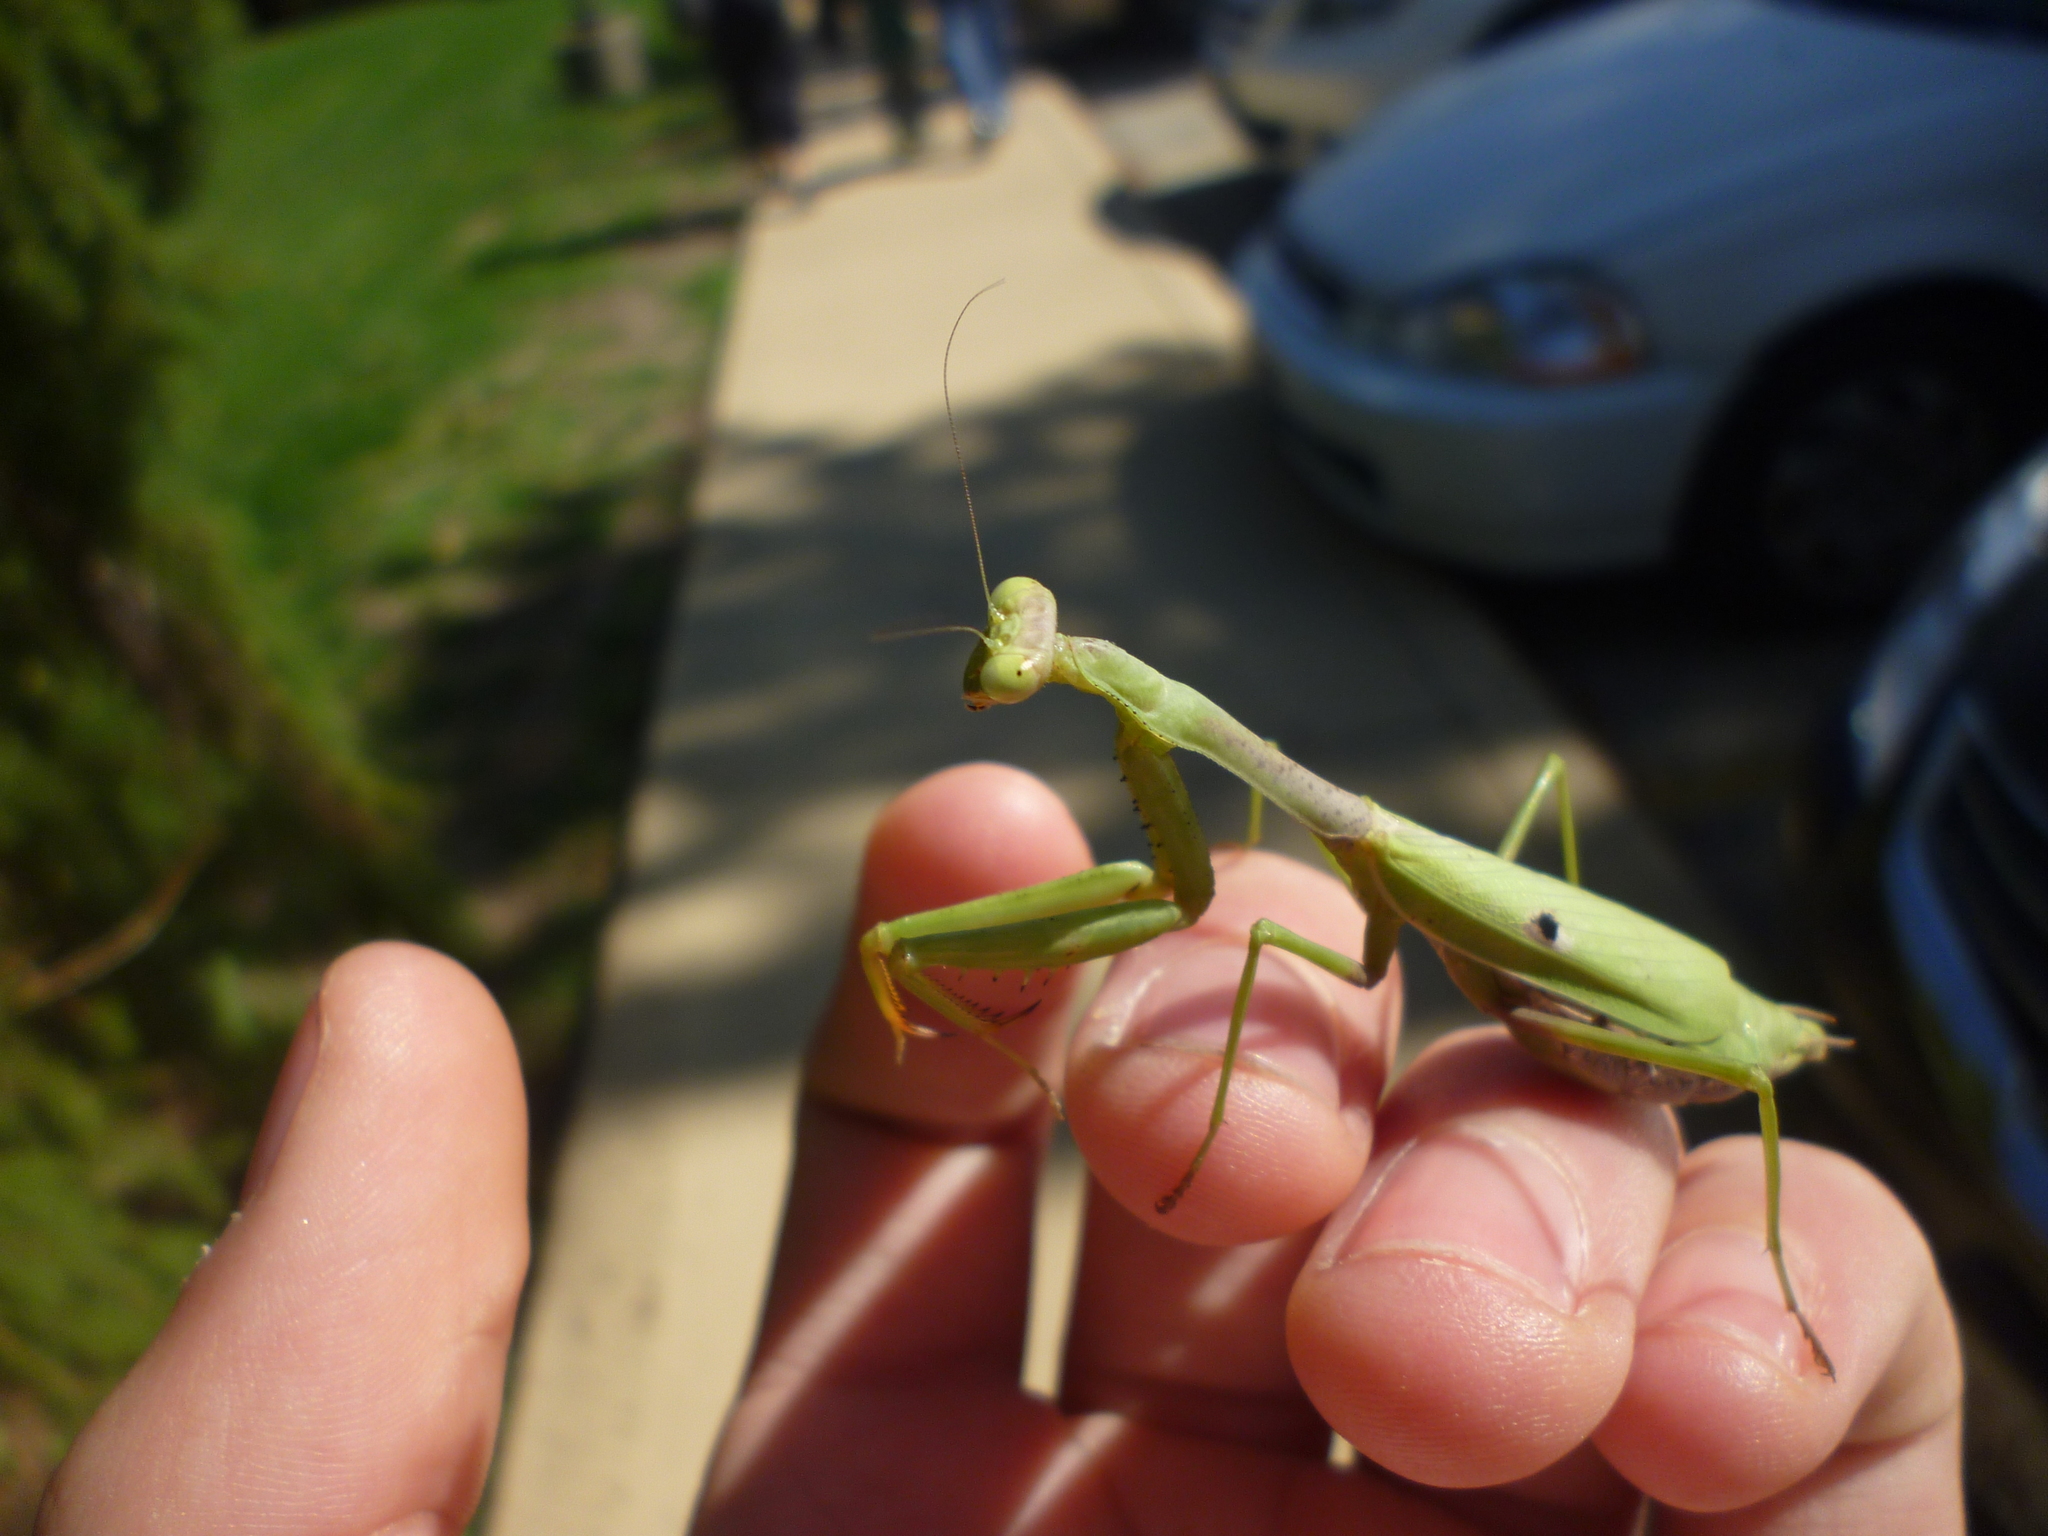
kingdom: Animalia
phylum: Arthropoda
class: Insecta
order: Mantodea
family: Mantidae
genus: Stagmomantis
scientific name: Stagmomantis carolina
